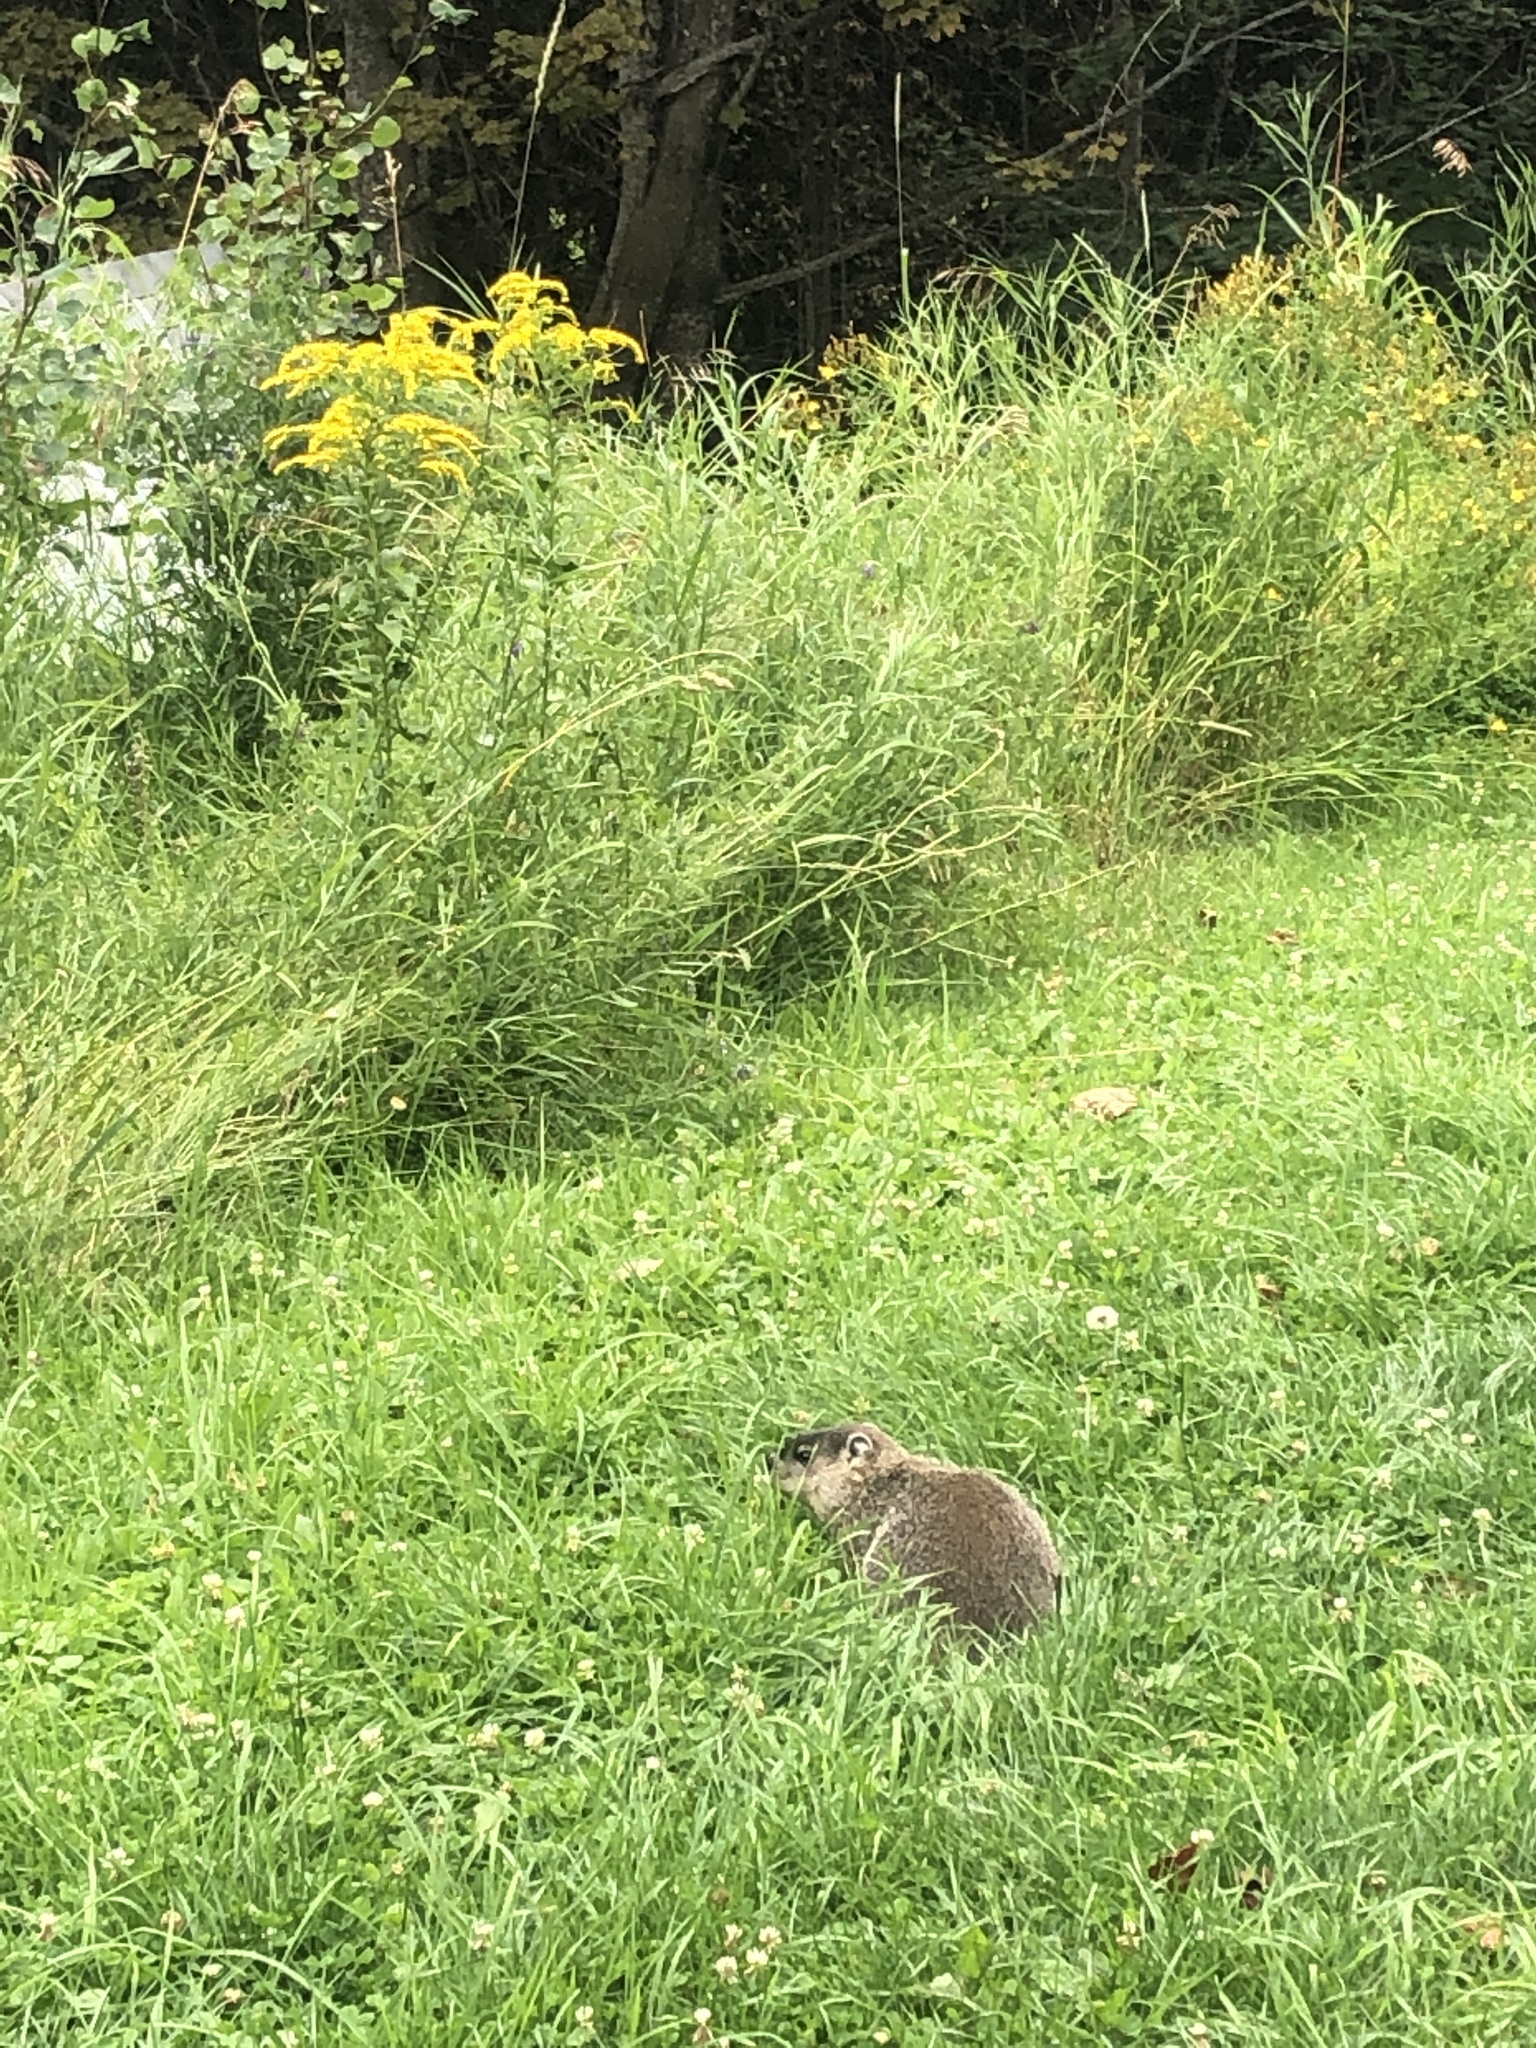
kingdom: Animalia
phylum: Chordata
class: Mammalia
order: Rodentia
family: Sciuridae
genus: Marmota
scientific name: Marmota monax
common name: Groundhog
